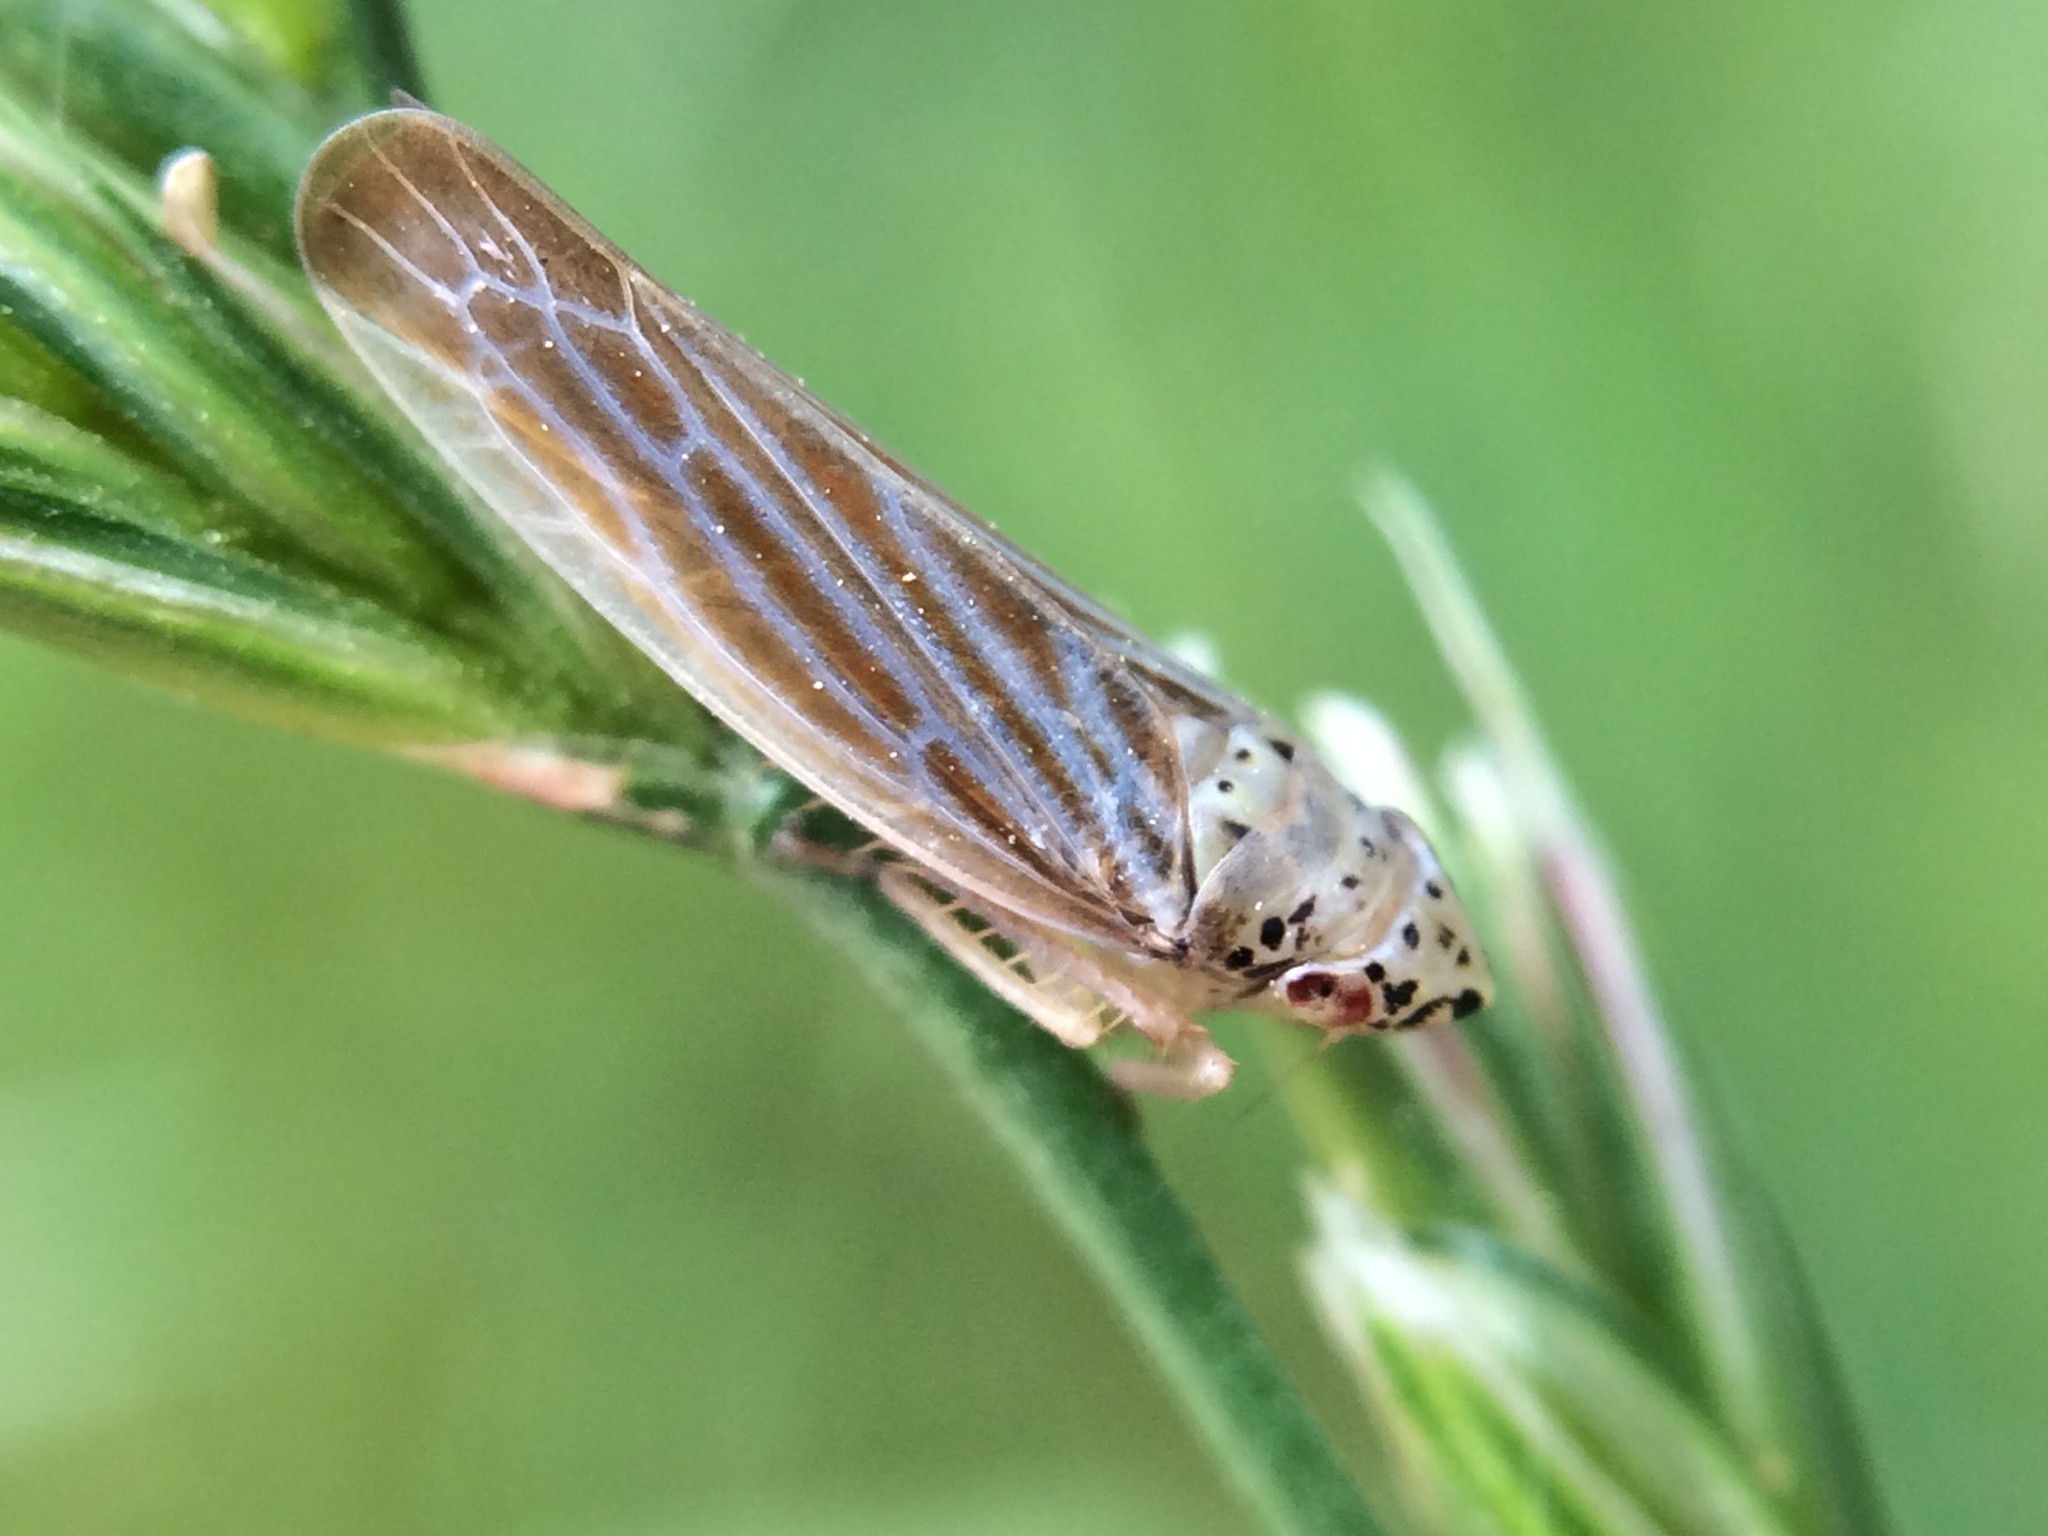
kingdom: Animalia
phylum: Arthropoda
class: Insecta
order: Hemiptera
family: Cicadellidae
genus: Pagaronia
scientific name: Pagaronia triunata
